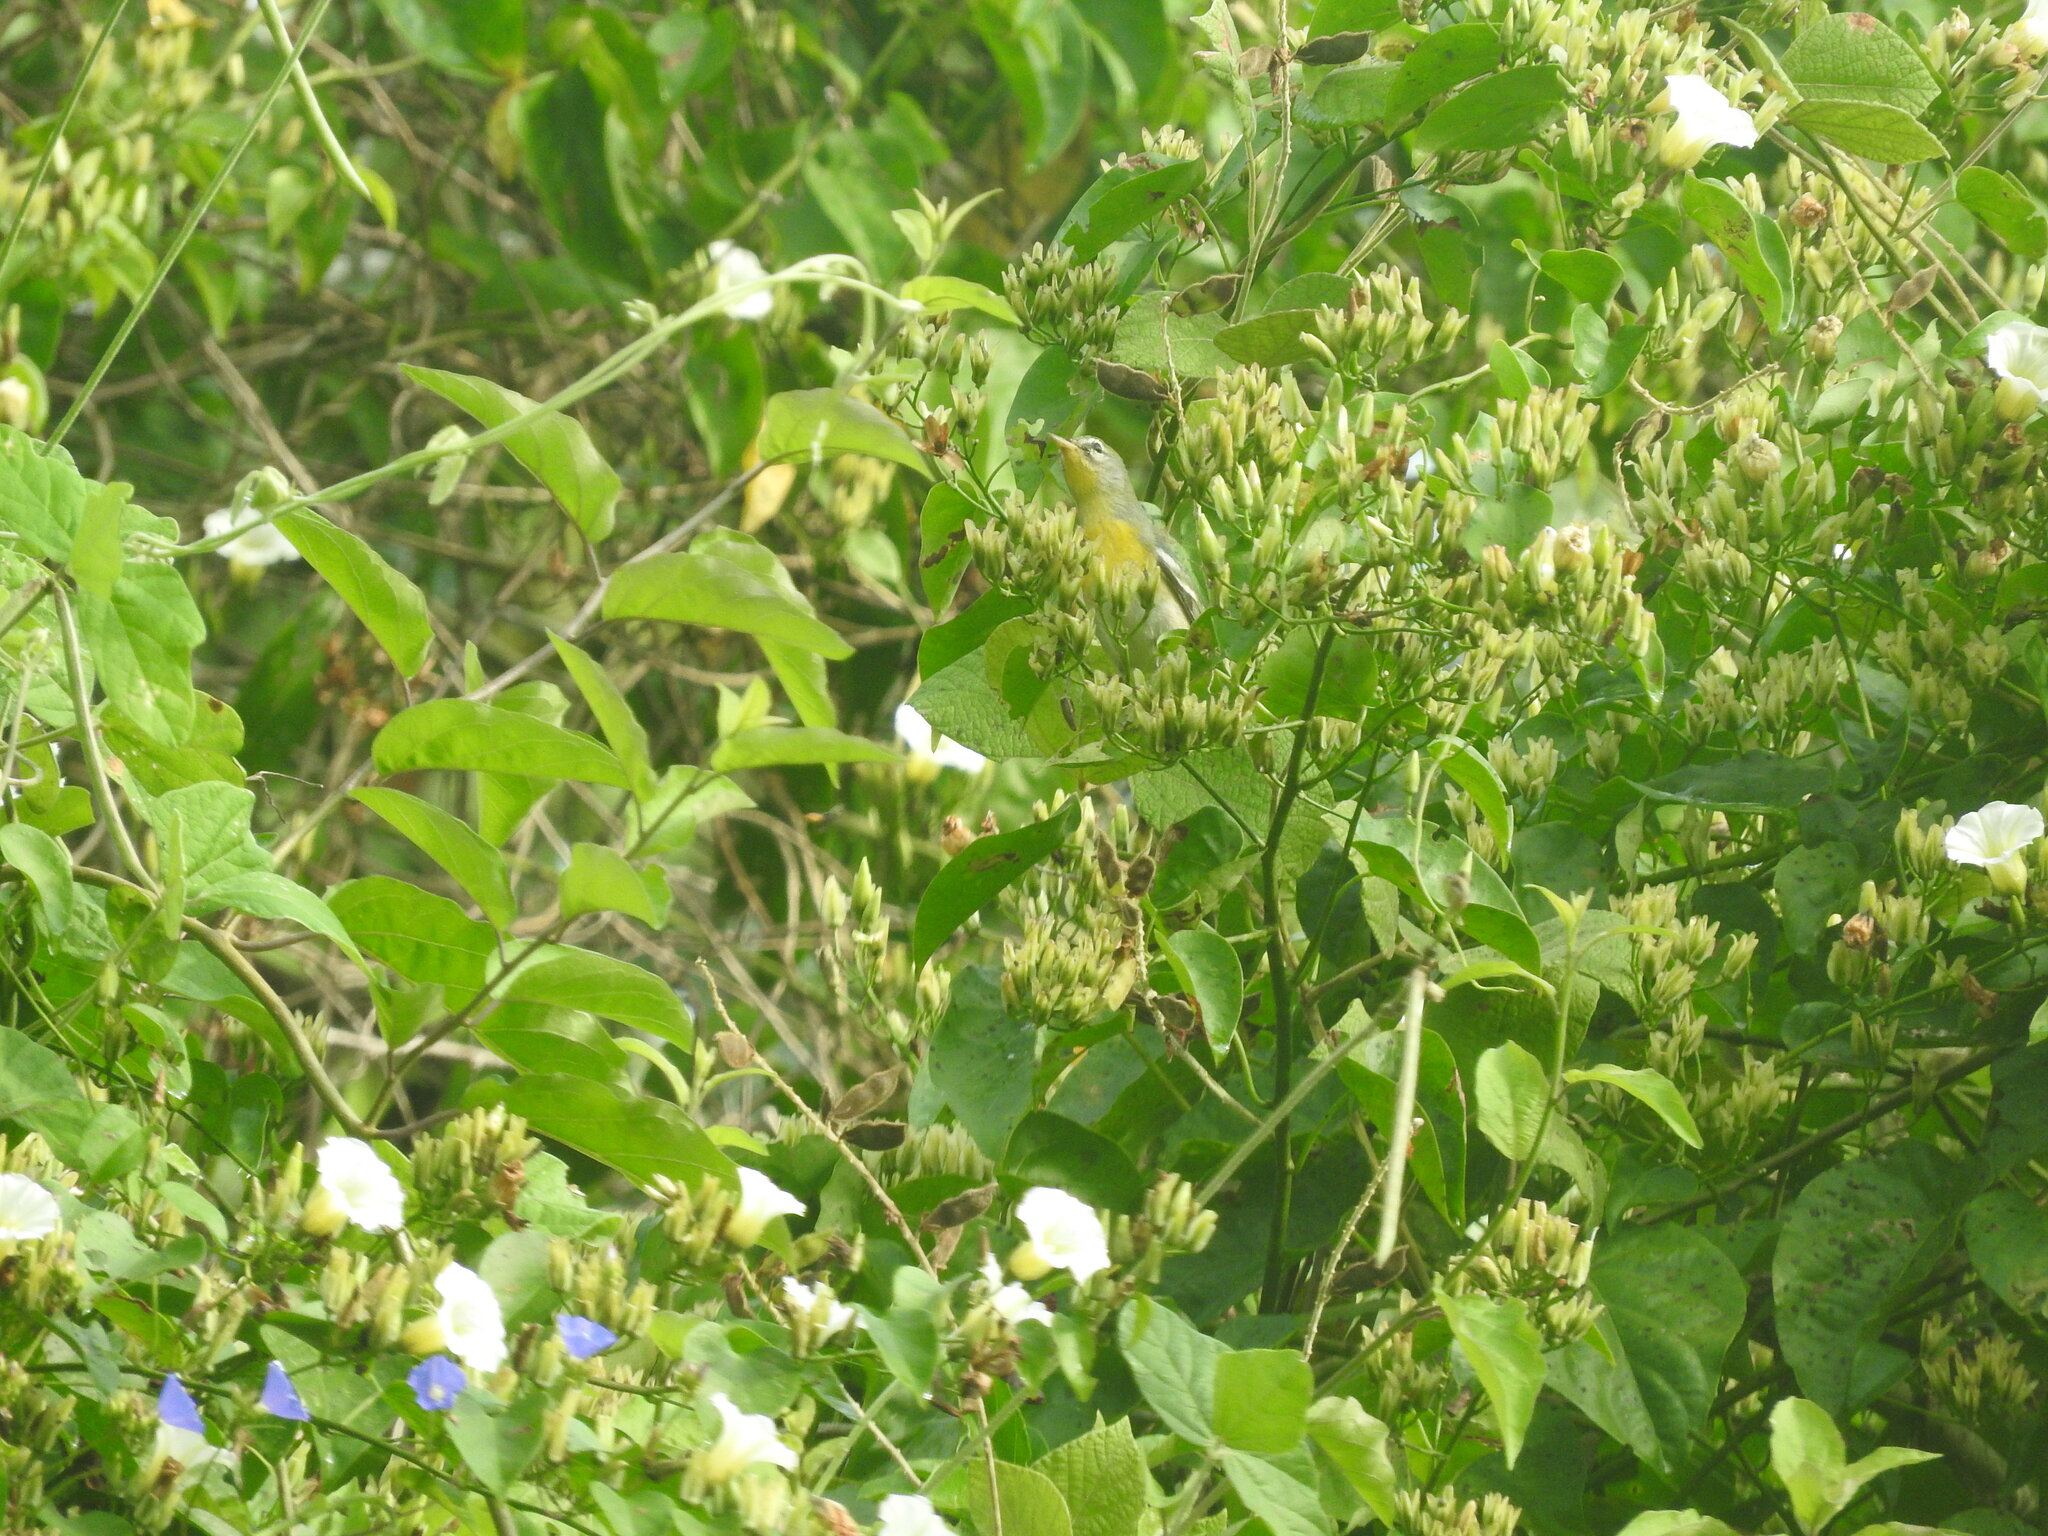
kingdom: Animalia
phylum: Chordata
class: Aves
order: Passeriformes
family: Parulidae
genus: Setophaga
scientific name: Setophaga americana
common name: Northern parula
